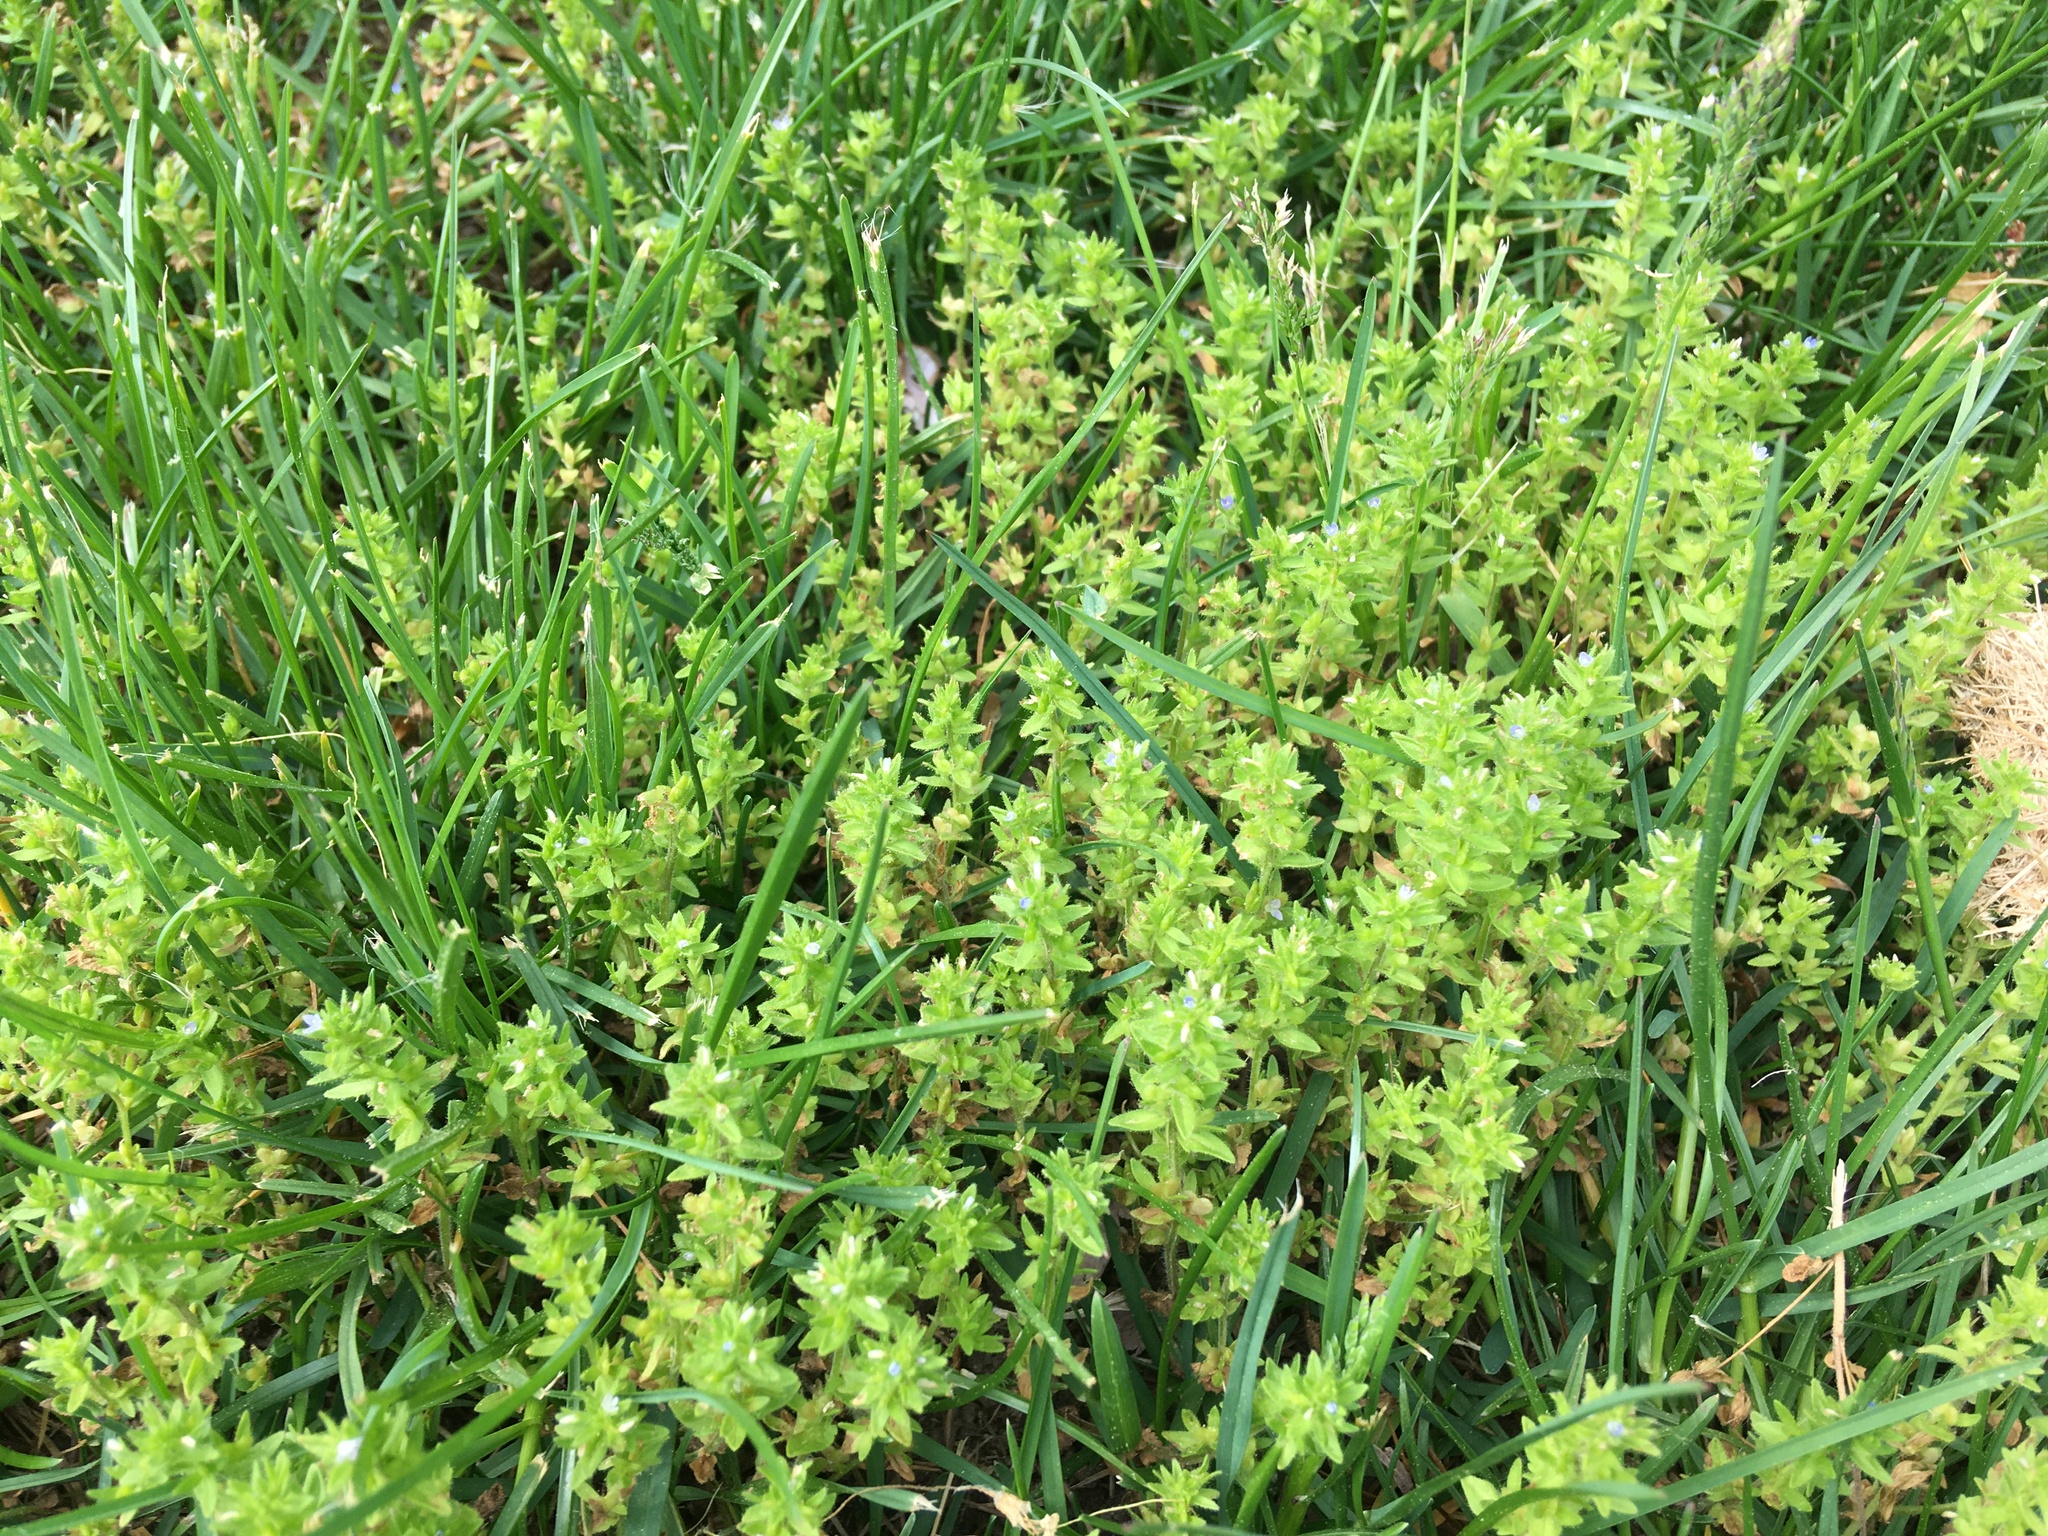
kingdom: Plantae
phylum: Tracheophyta
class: Magnoliopsida
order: Lamiales
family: Plantaginaceae
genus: Veronica
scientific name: Veronica arvensis
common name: Corn speedwell
